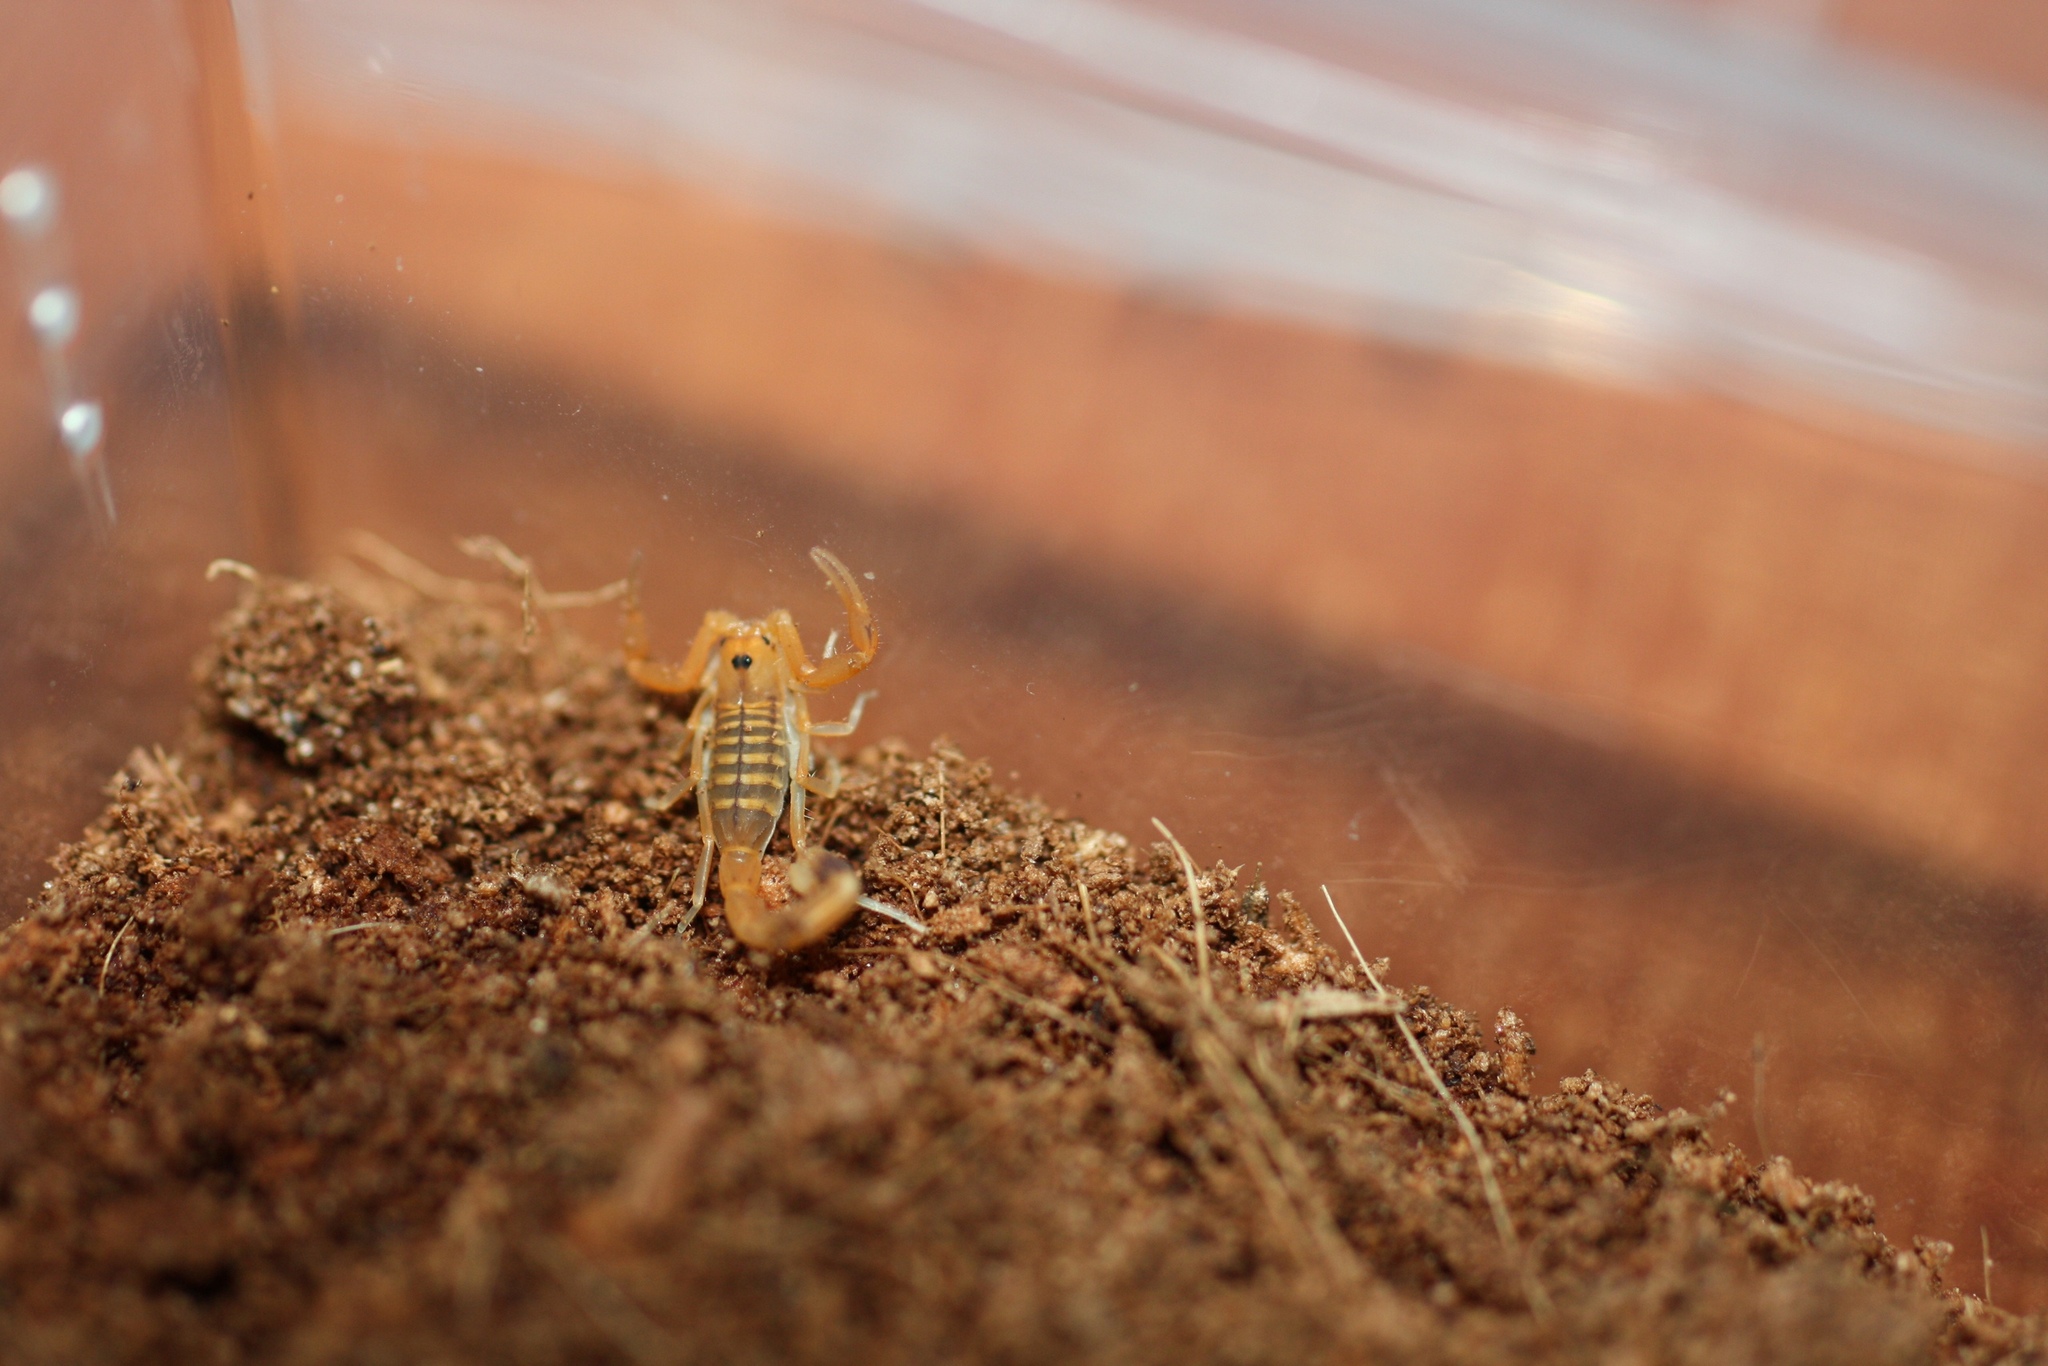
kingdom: Animalia
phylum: Arthropoda
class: Arachnida
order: Scorpiones
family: Buthidae
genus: Uroplectes
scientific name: Uroplectes carinatus
